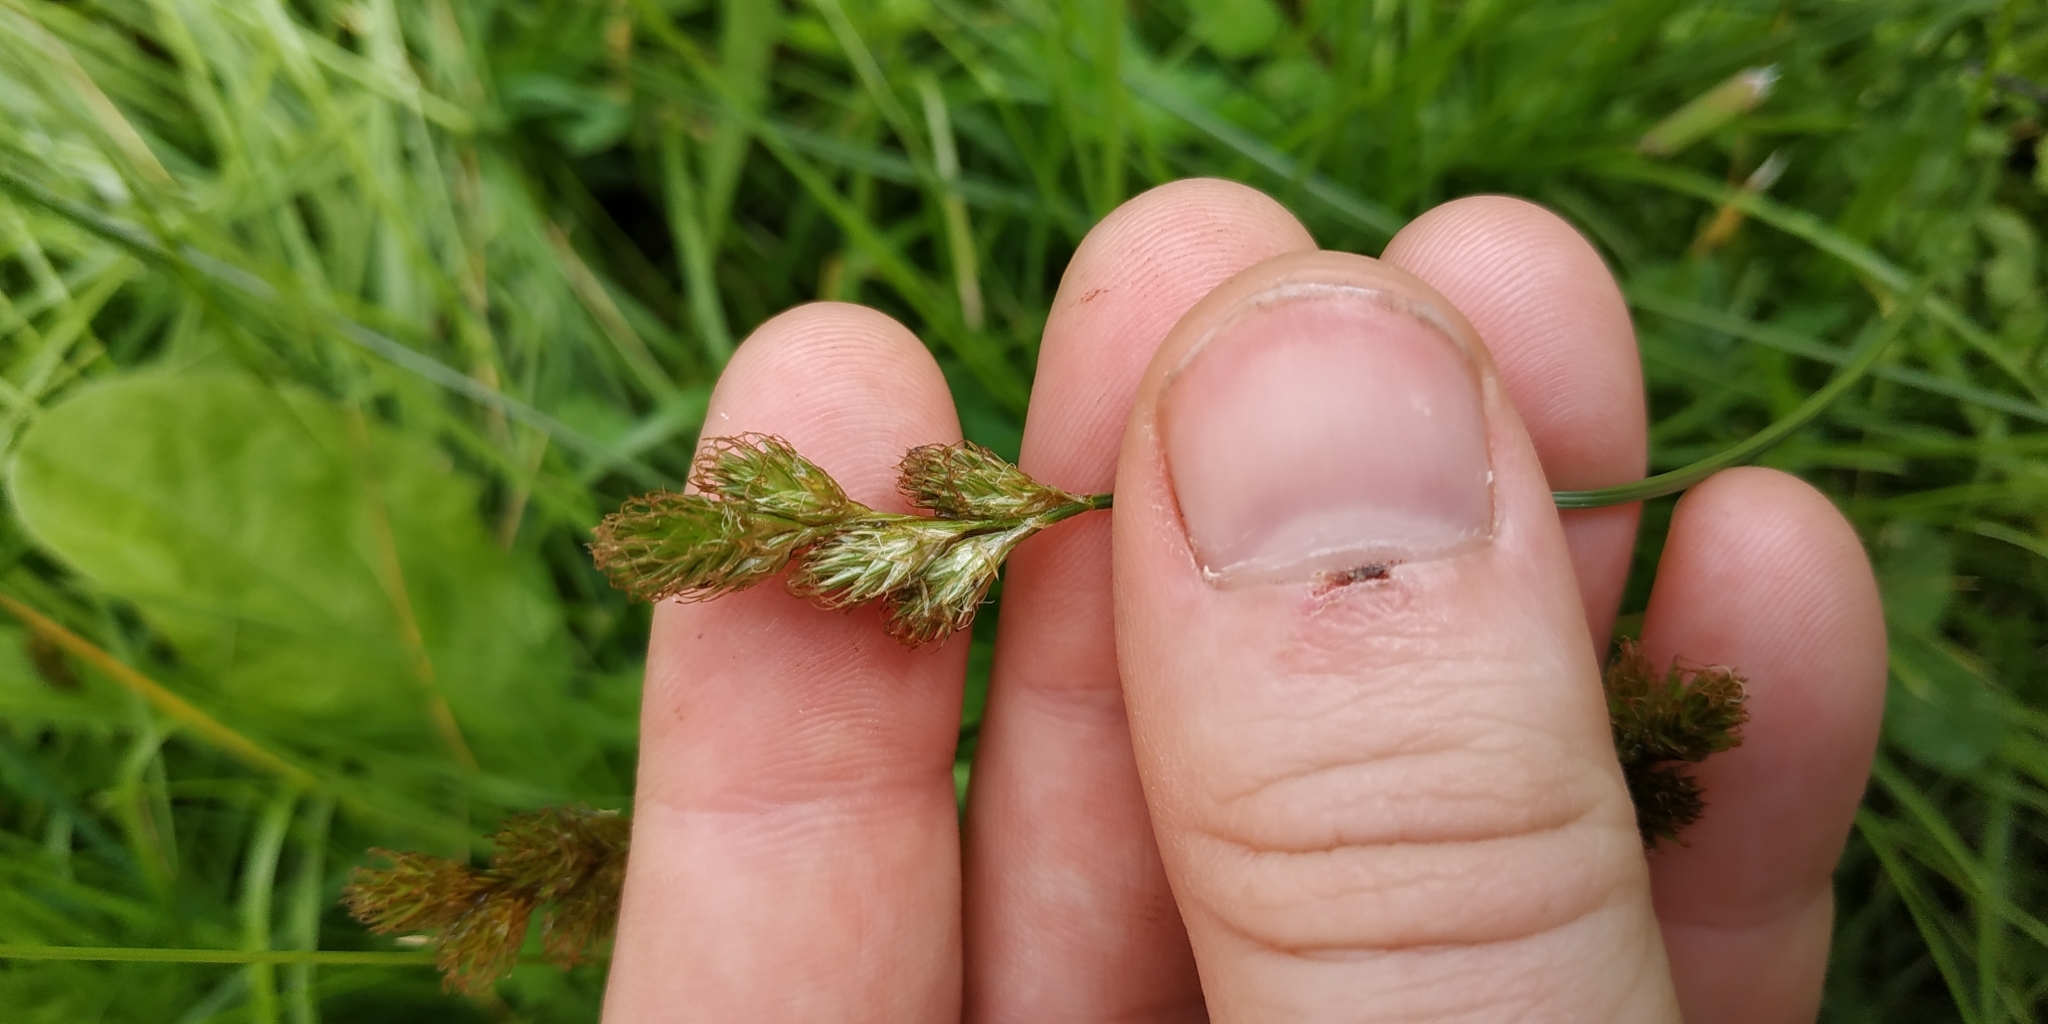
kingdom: Plantae
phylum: Tracheophyta
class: Liliopsida
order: Poales
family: Cyperaceae
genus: Carex
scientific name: Carex leporina
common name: Oval sedge
